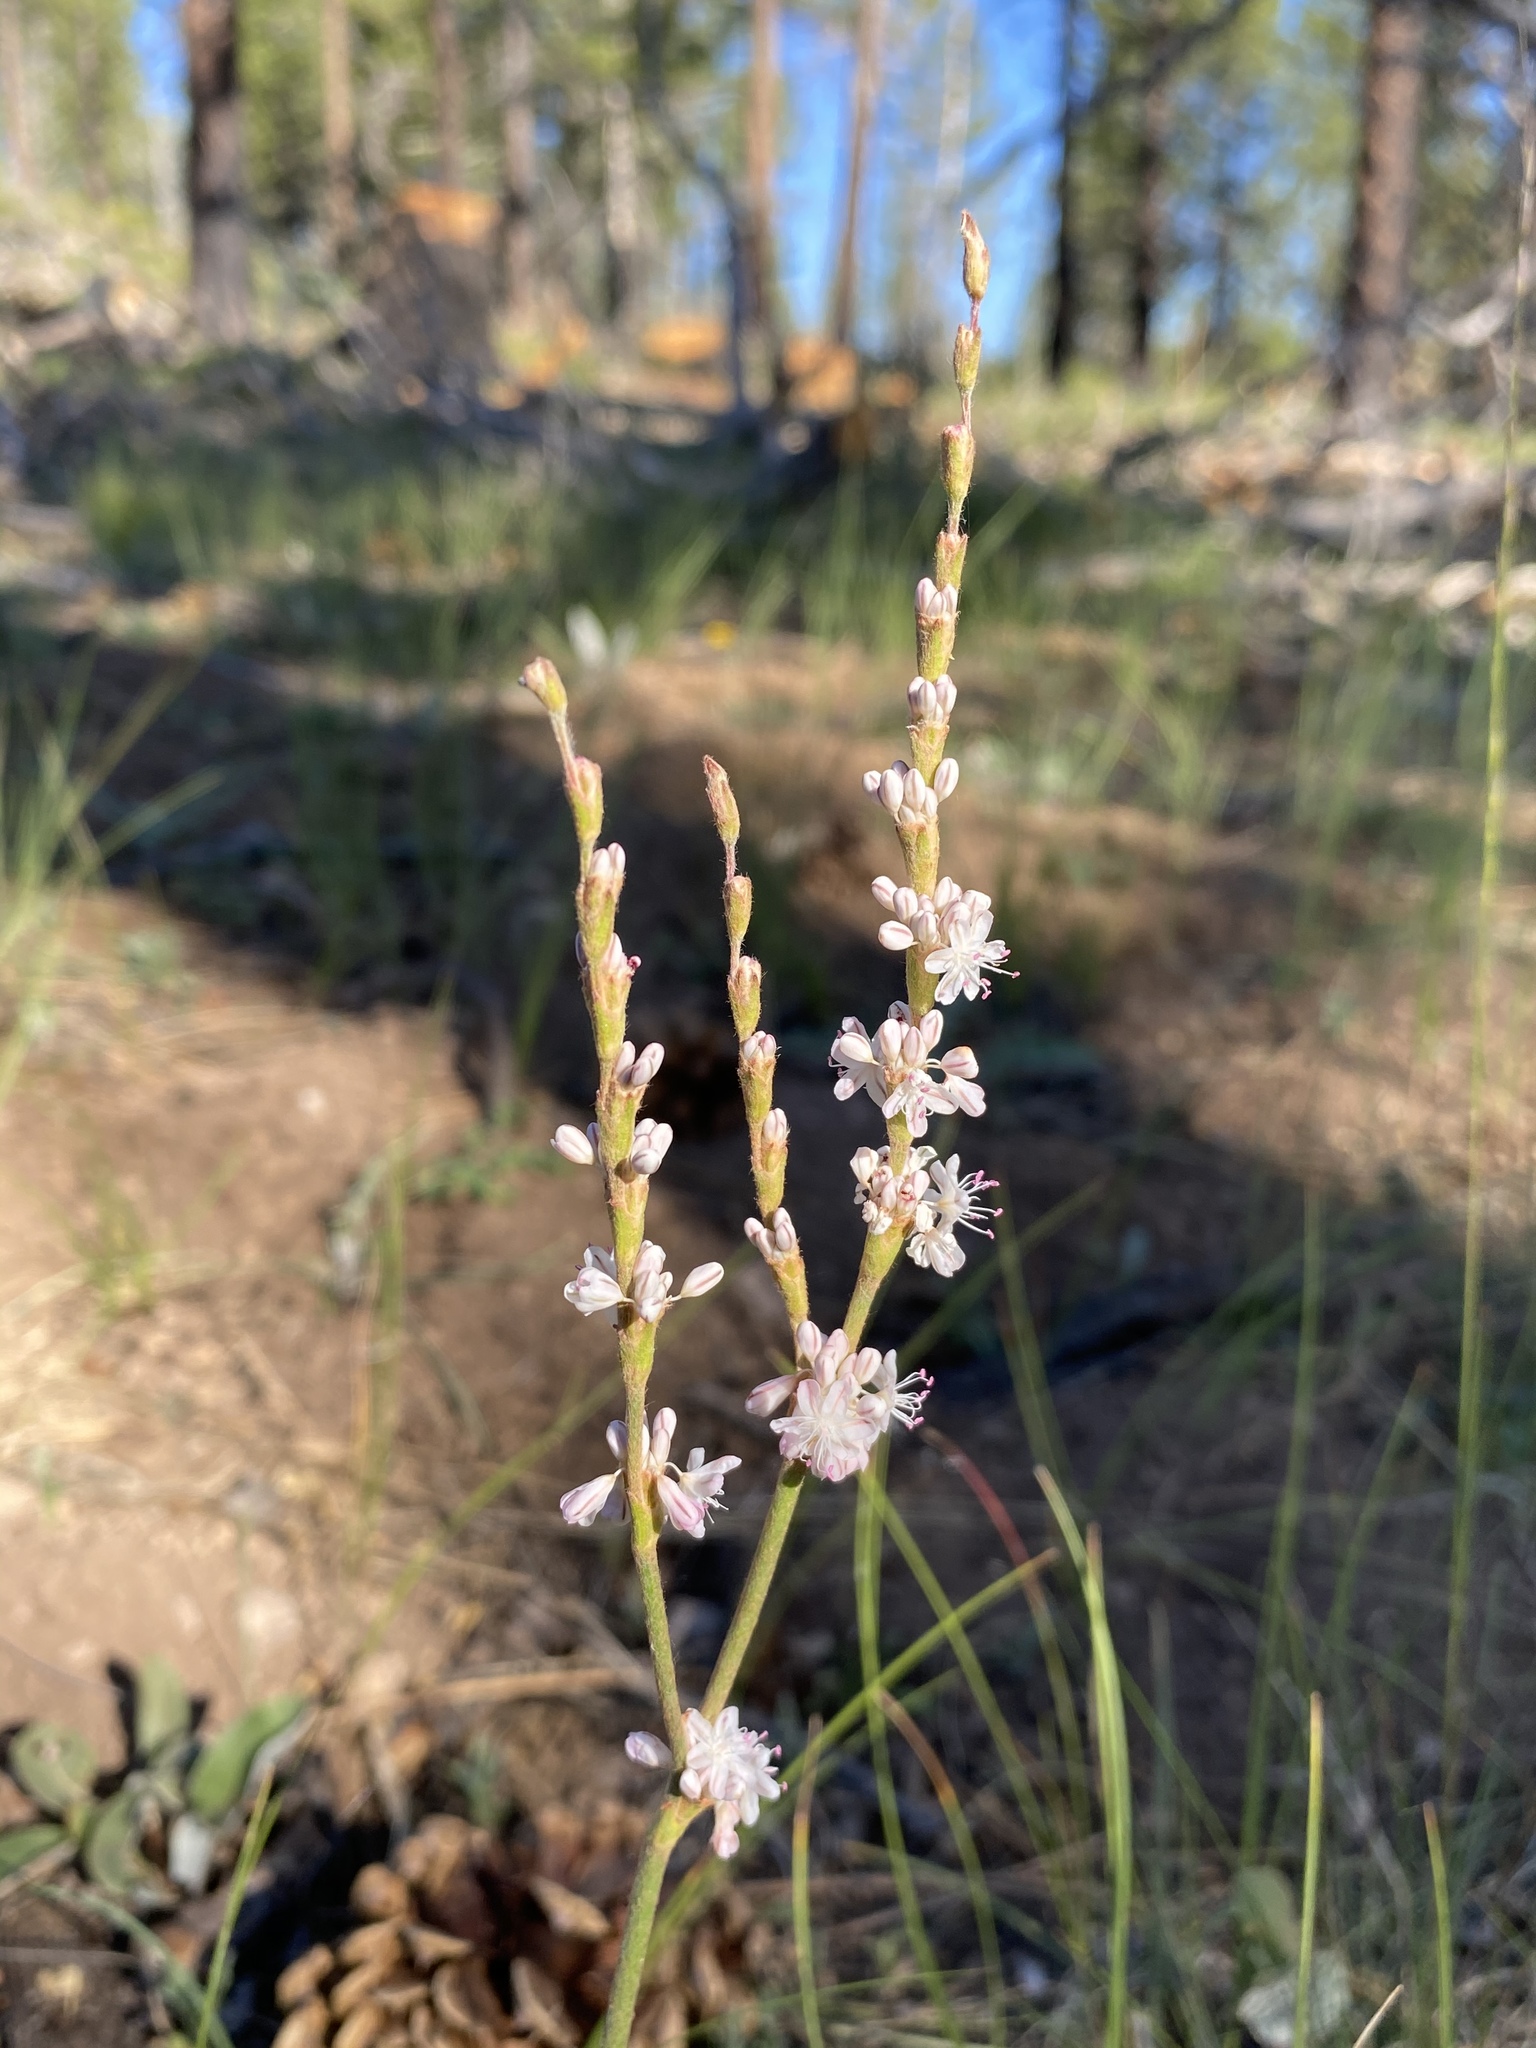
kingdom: Plantae
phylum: Tracheophyta
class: Magnoliopsida
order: Caryophyllales
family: Polygonaceae
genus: Eriogonum
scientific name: Eriogonum racemosum
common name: Redroot wild buckwheat
